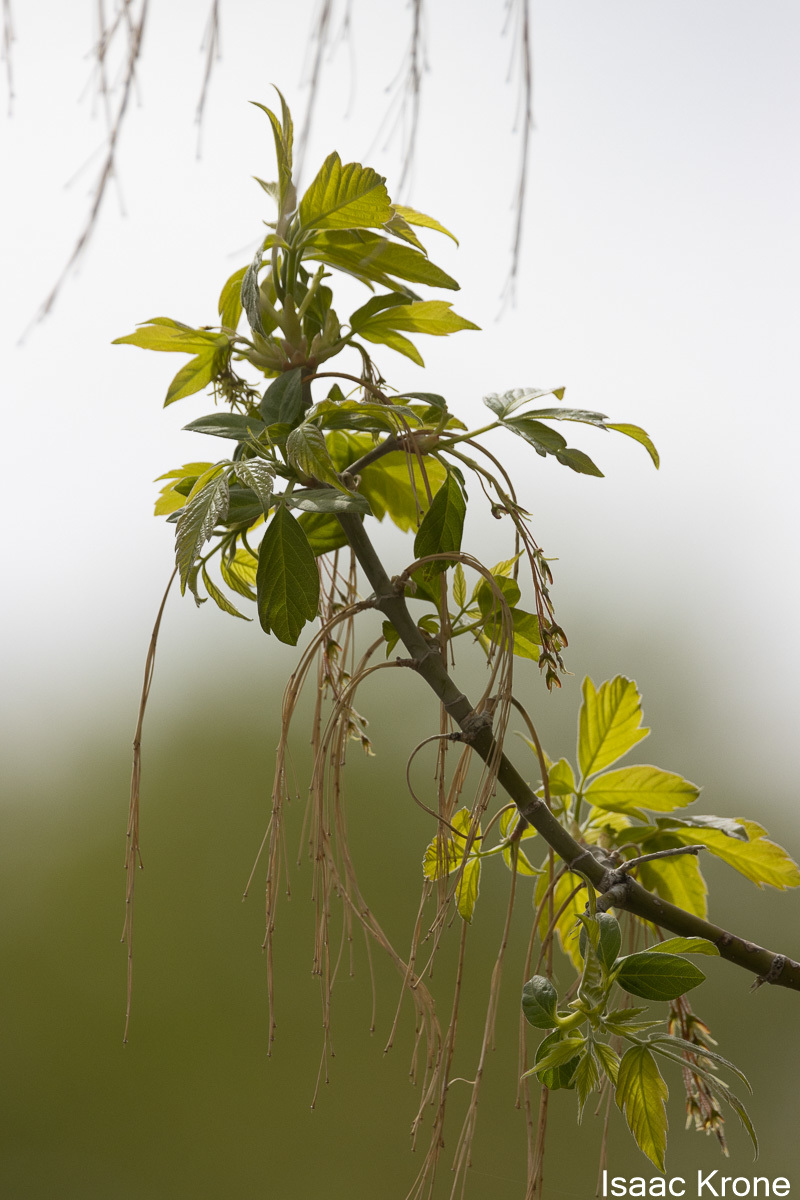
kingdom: Plantae
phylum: Tracheophyta
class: Magnoliopsida
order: Sapindales
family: Sapindaceae
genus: Acer
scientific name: Acer negundo
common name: Ashleaf maple
